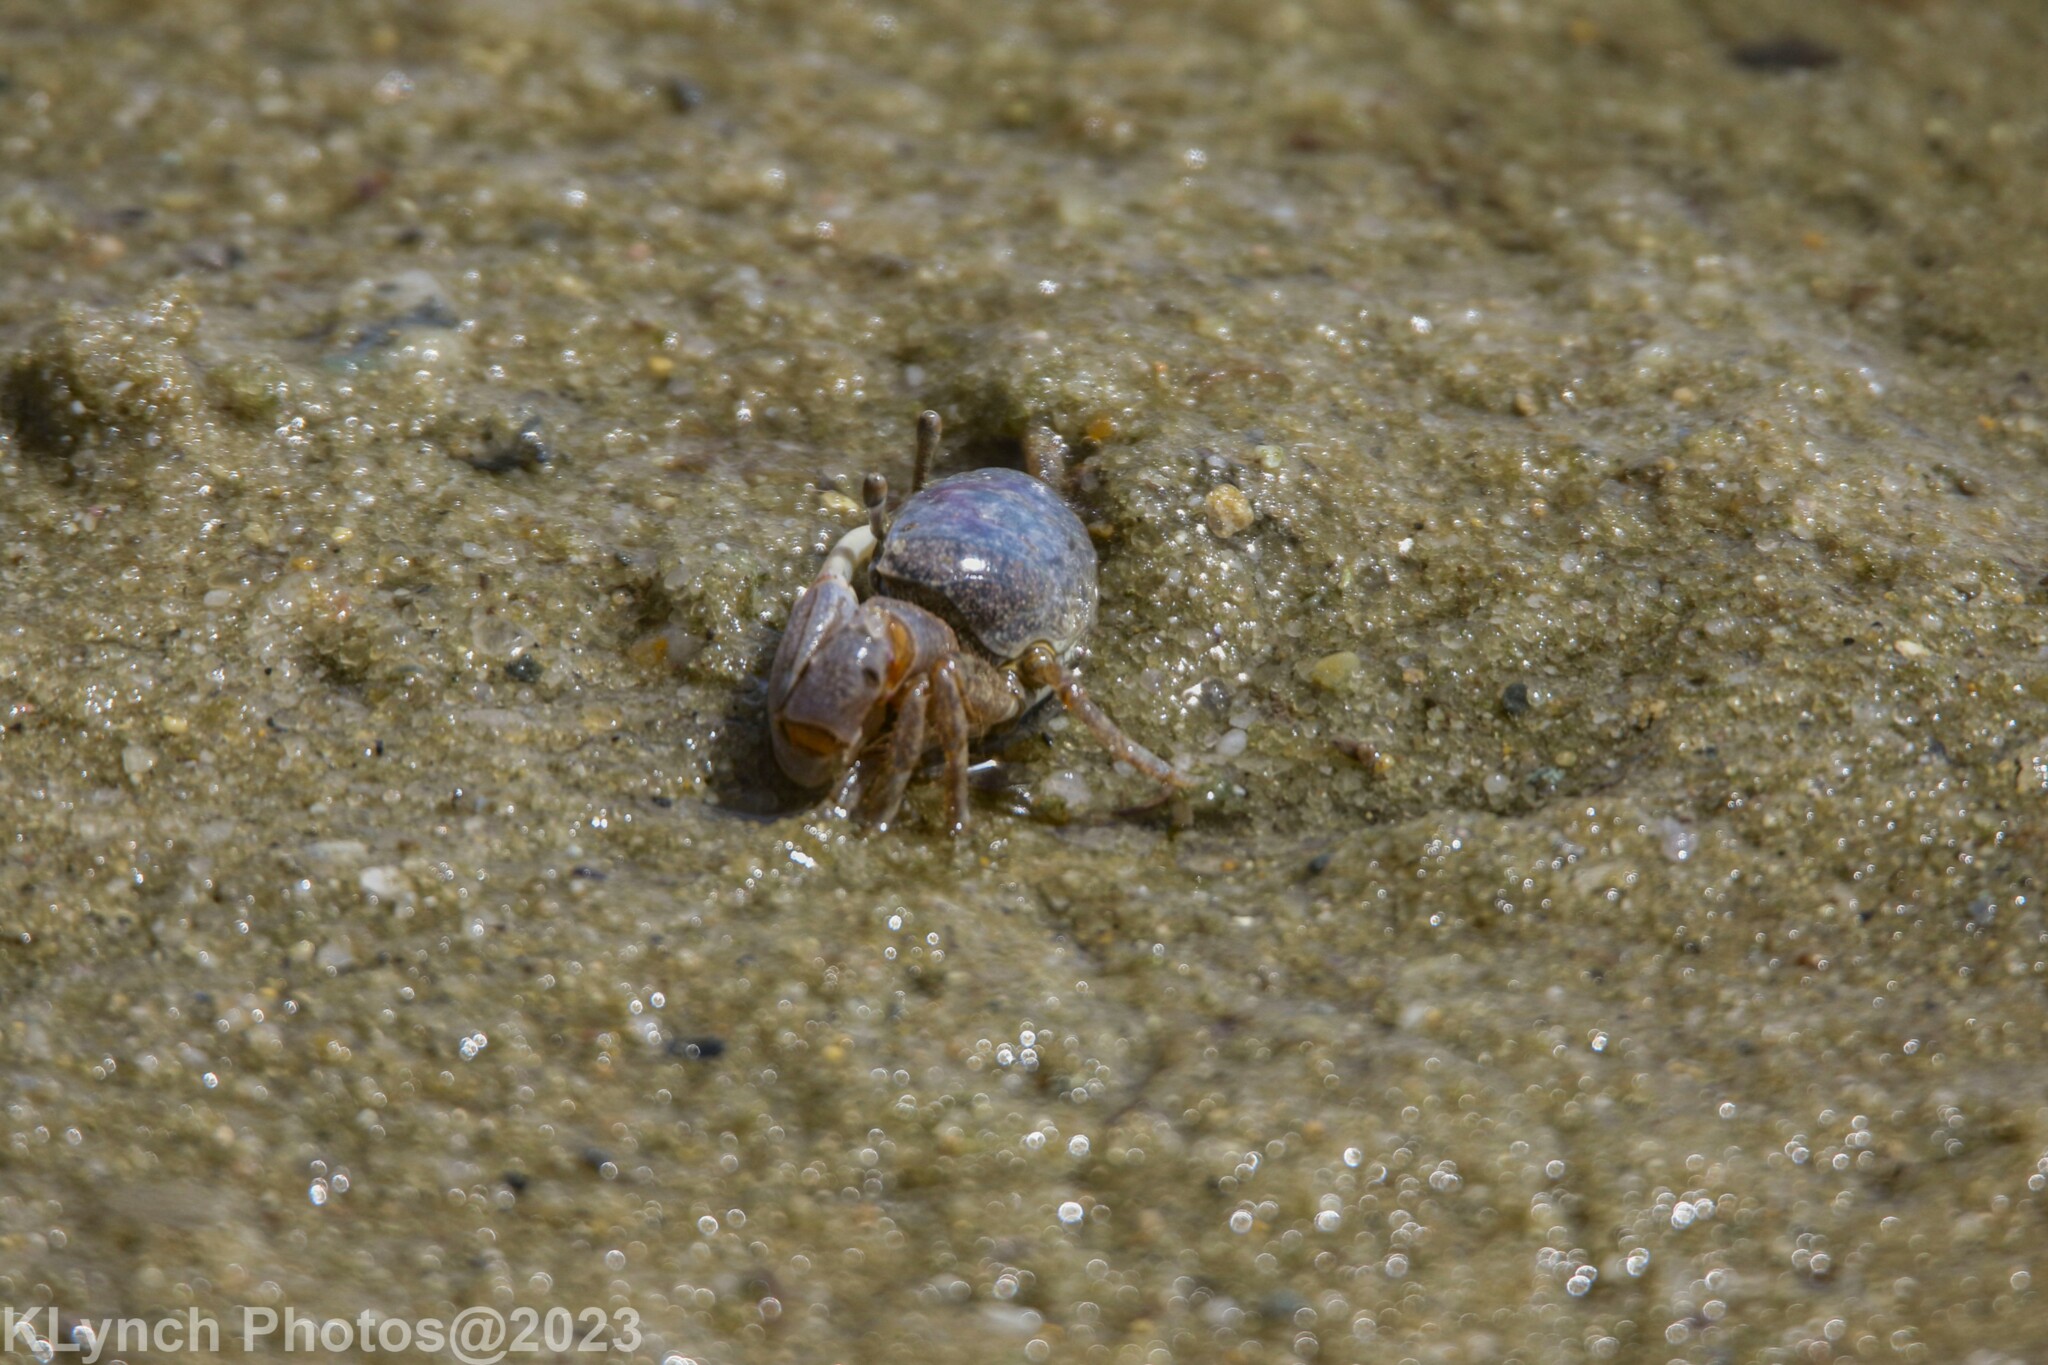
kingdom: Animalia
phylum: Arthropoda
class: Malacostraca
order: Decapoda
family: Ocypodidae
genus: Leptuca
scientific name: Leptuca pugilator
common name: Atlantic sand fiddler crab
